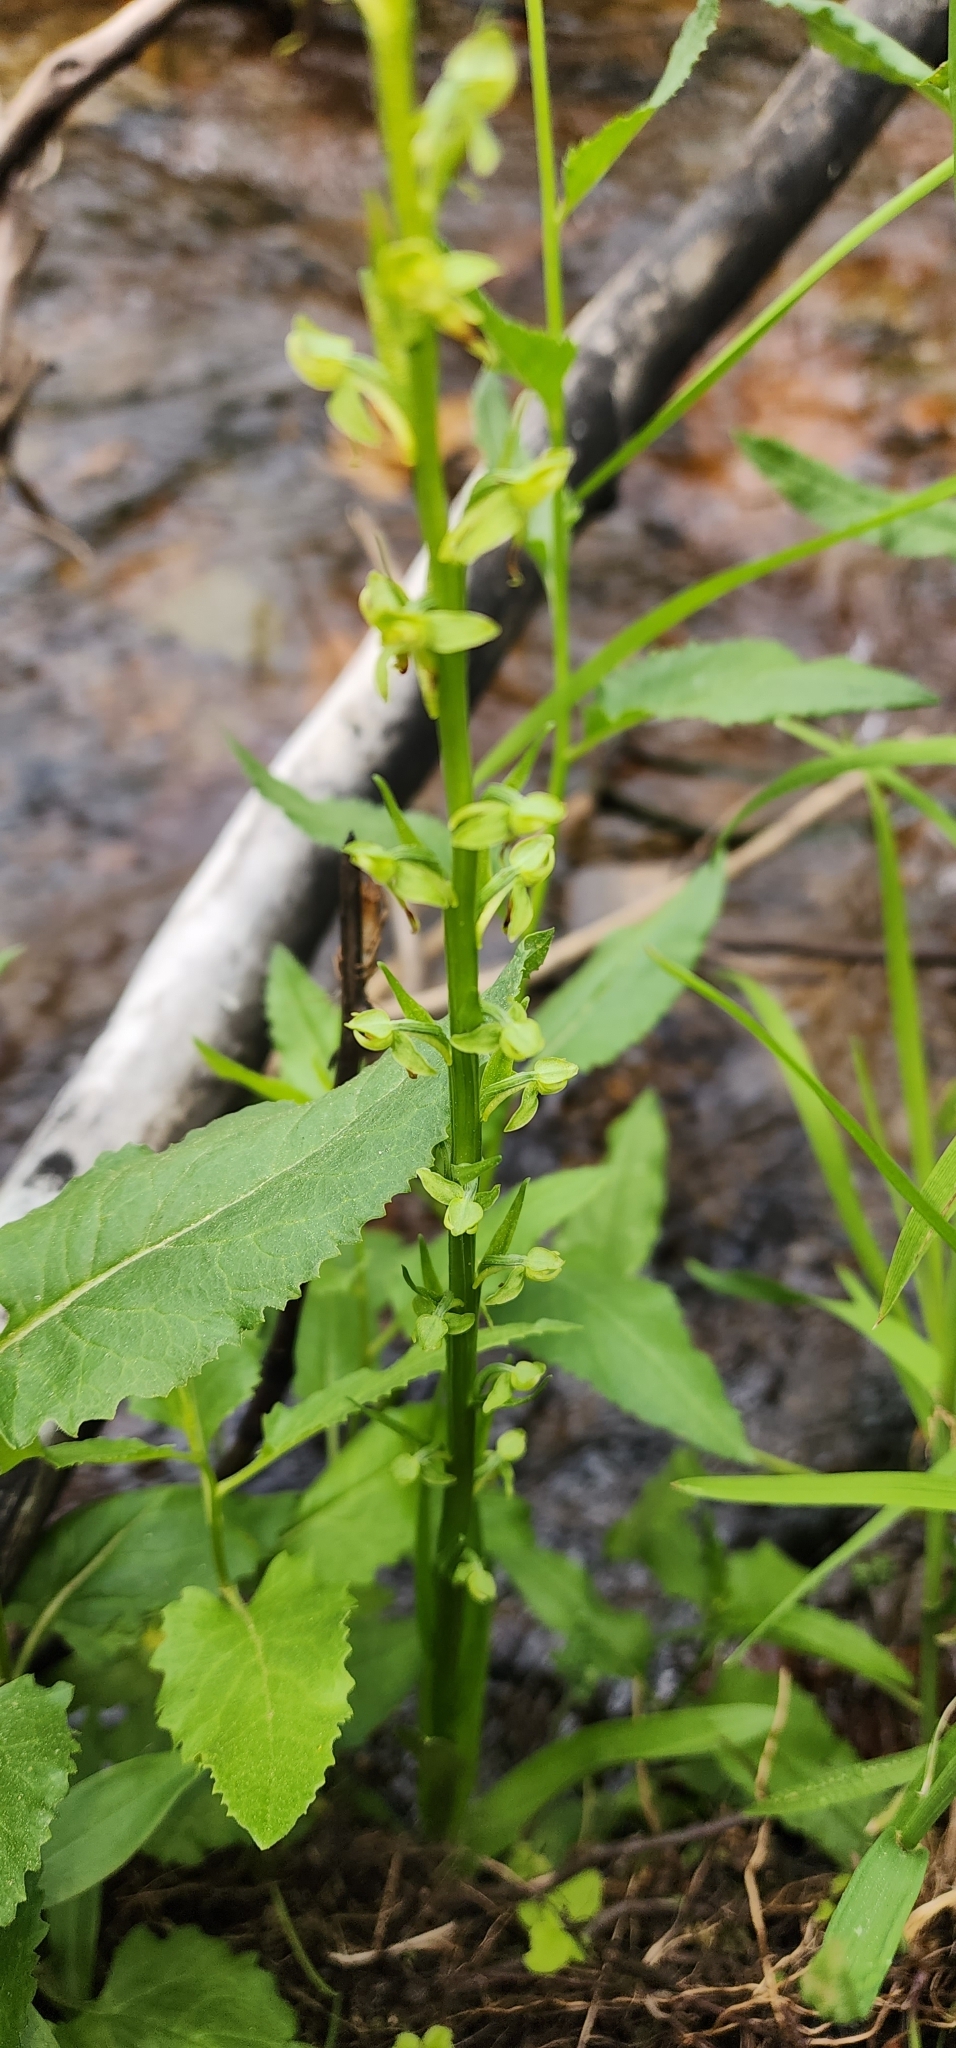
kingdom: Plantae
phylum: Tracheophyta
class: Liliopsida
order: Asparagales
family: Orchidaceae
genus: Platanthera
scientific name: Platanthera sparsiflora
